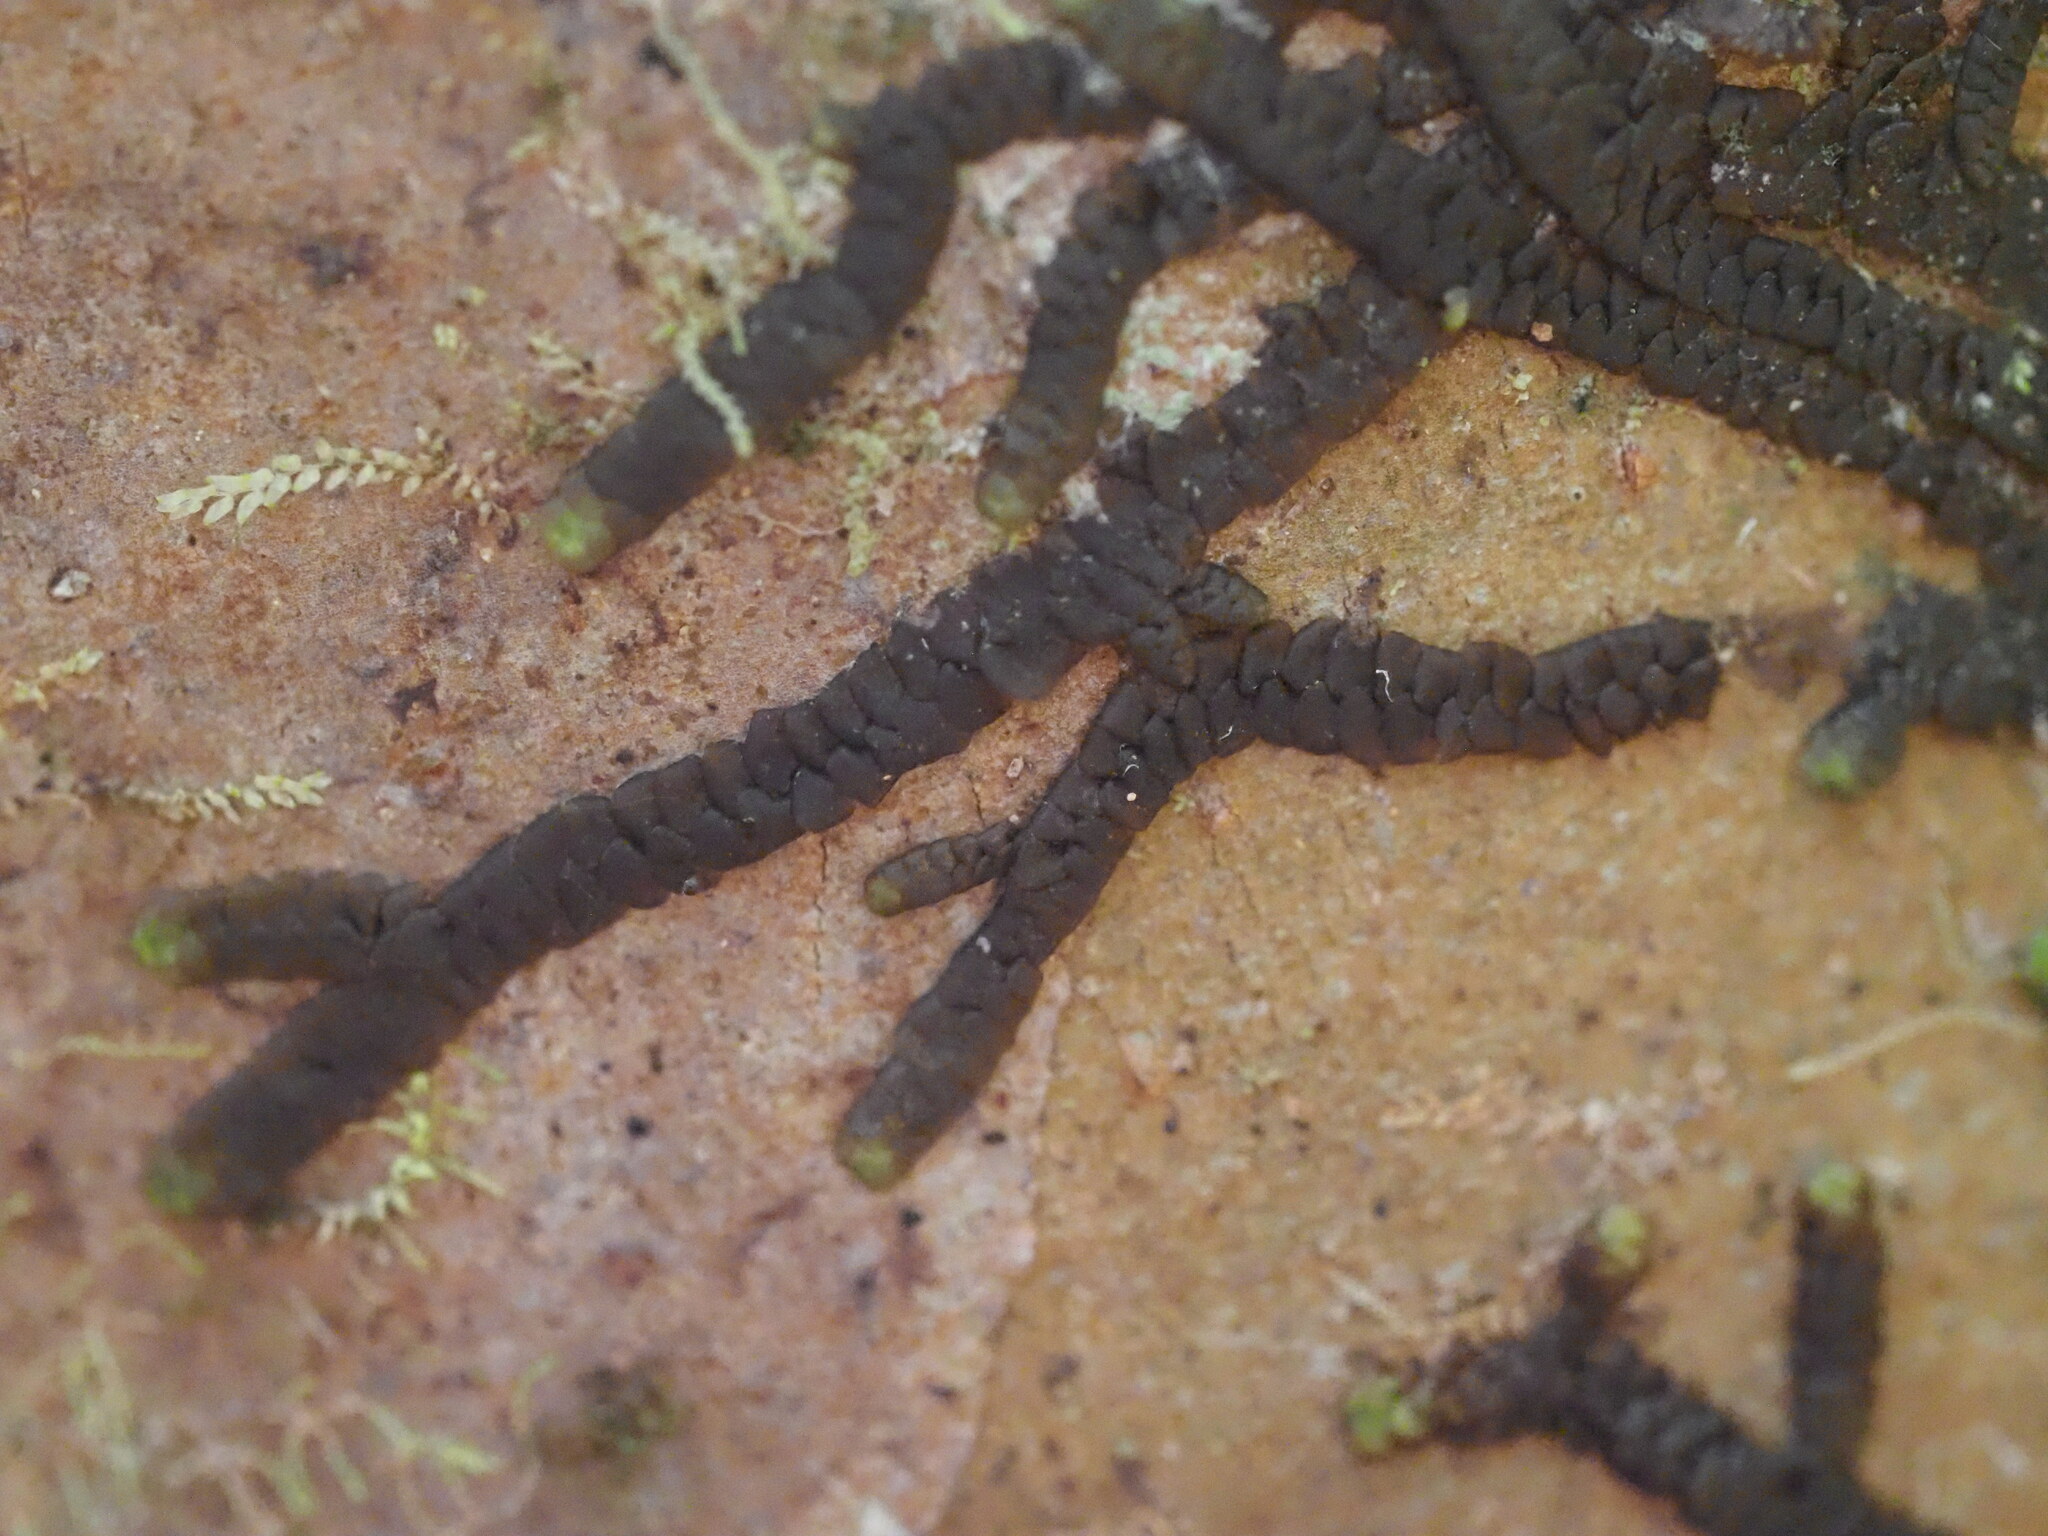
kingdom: Plantae
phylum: Marchantiophyta
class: Jungermanniopsida
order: Porellales
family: Lejeuneaceae
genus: Lopholejeunea
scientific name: Lopholejeunea nigricans
